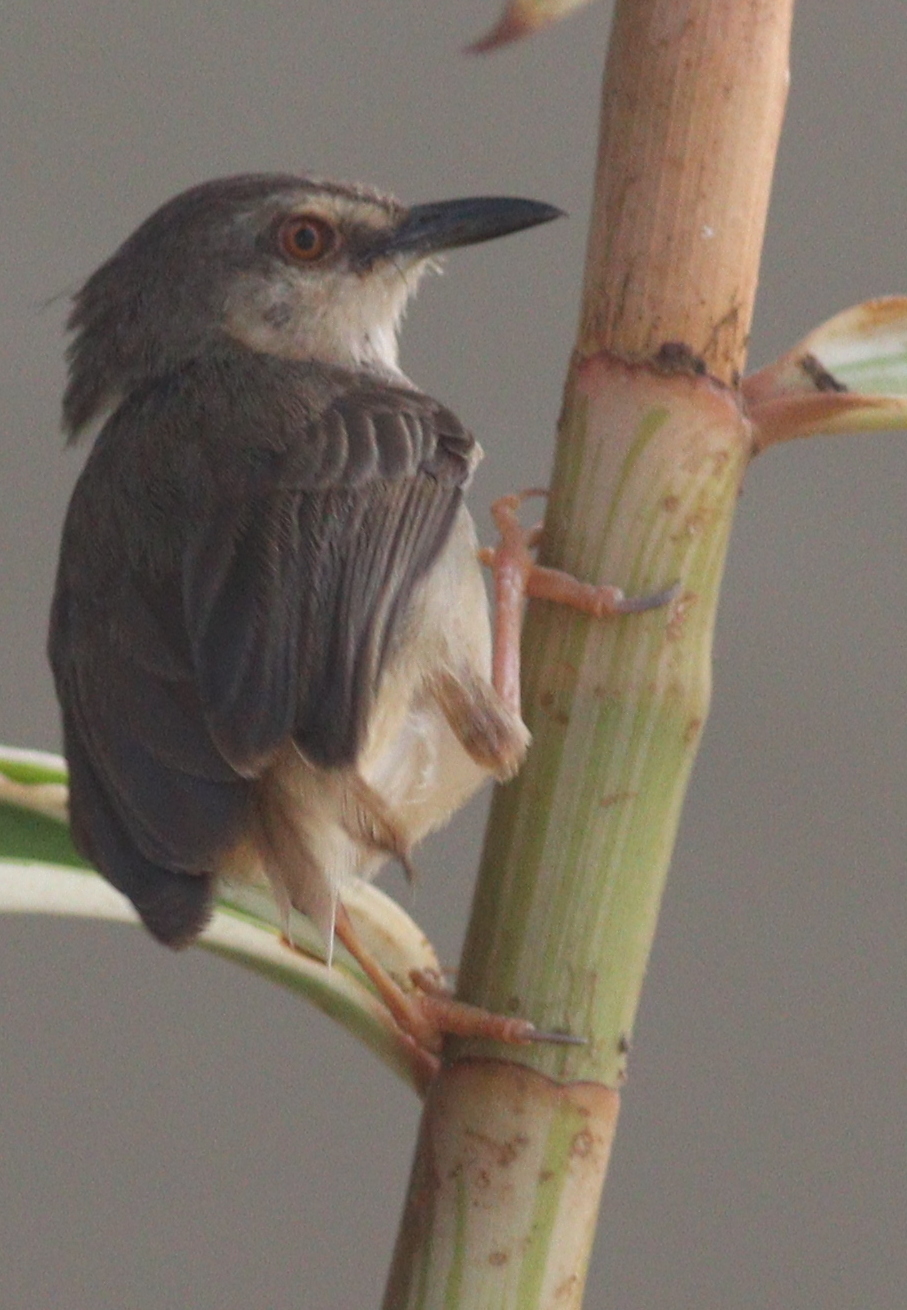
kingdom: Animalia
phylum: Chordata
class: Aves
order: Passeriformes
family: Cisticolidae
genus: Prinia
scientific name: Prinia subflava
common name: Tawny-flanked prinia
